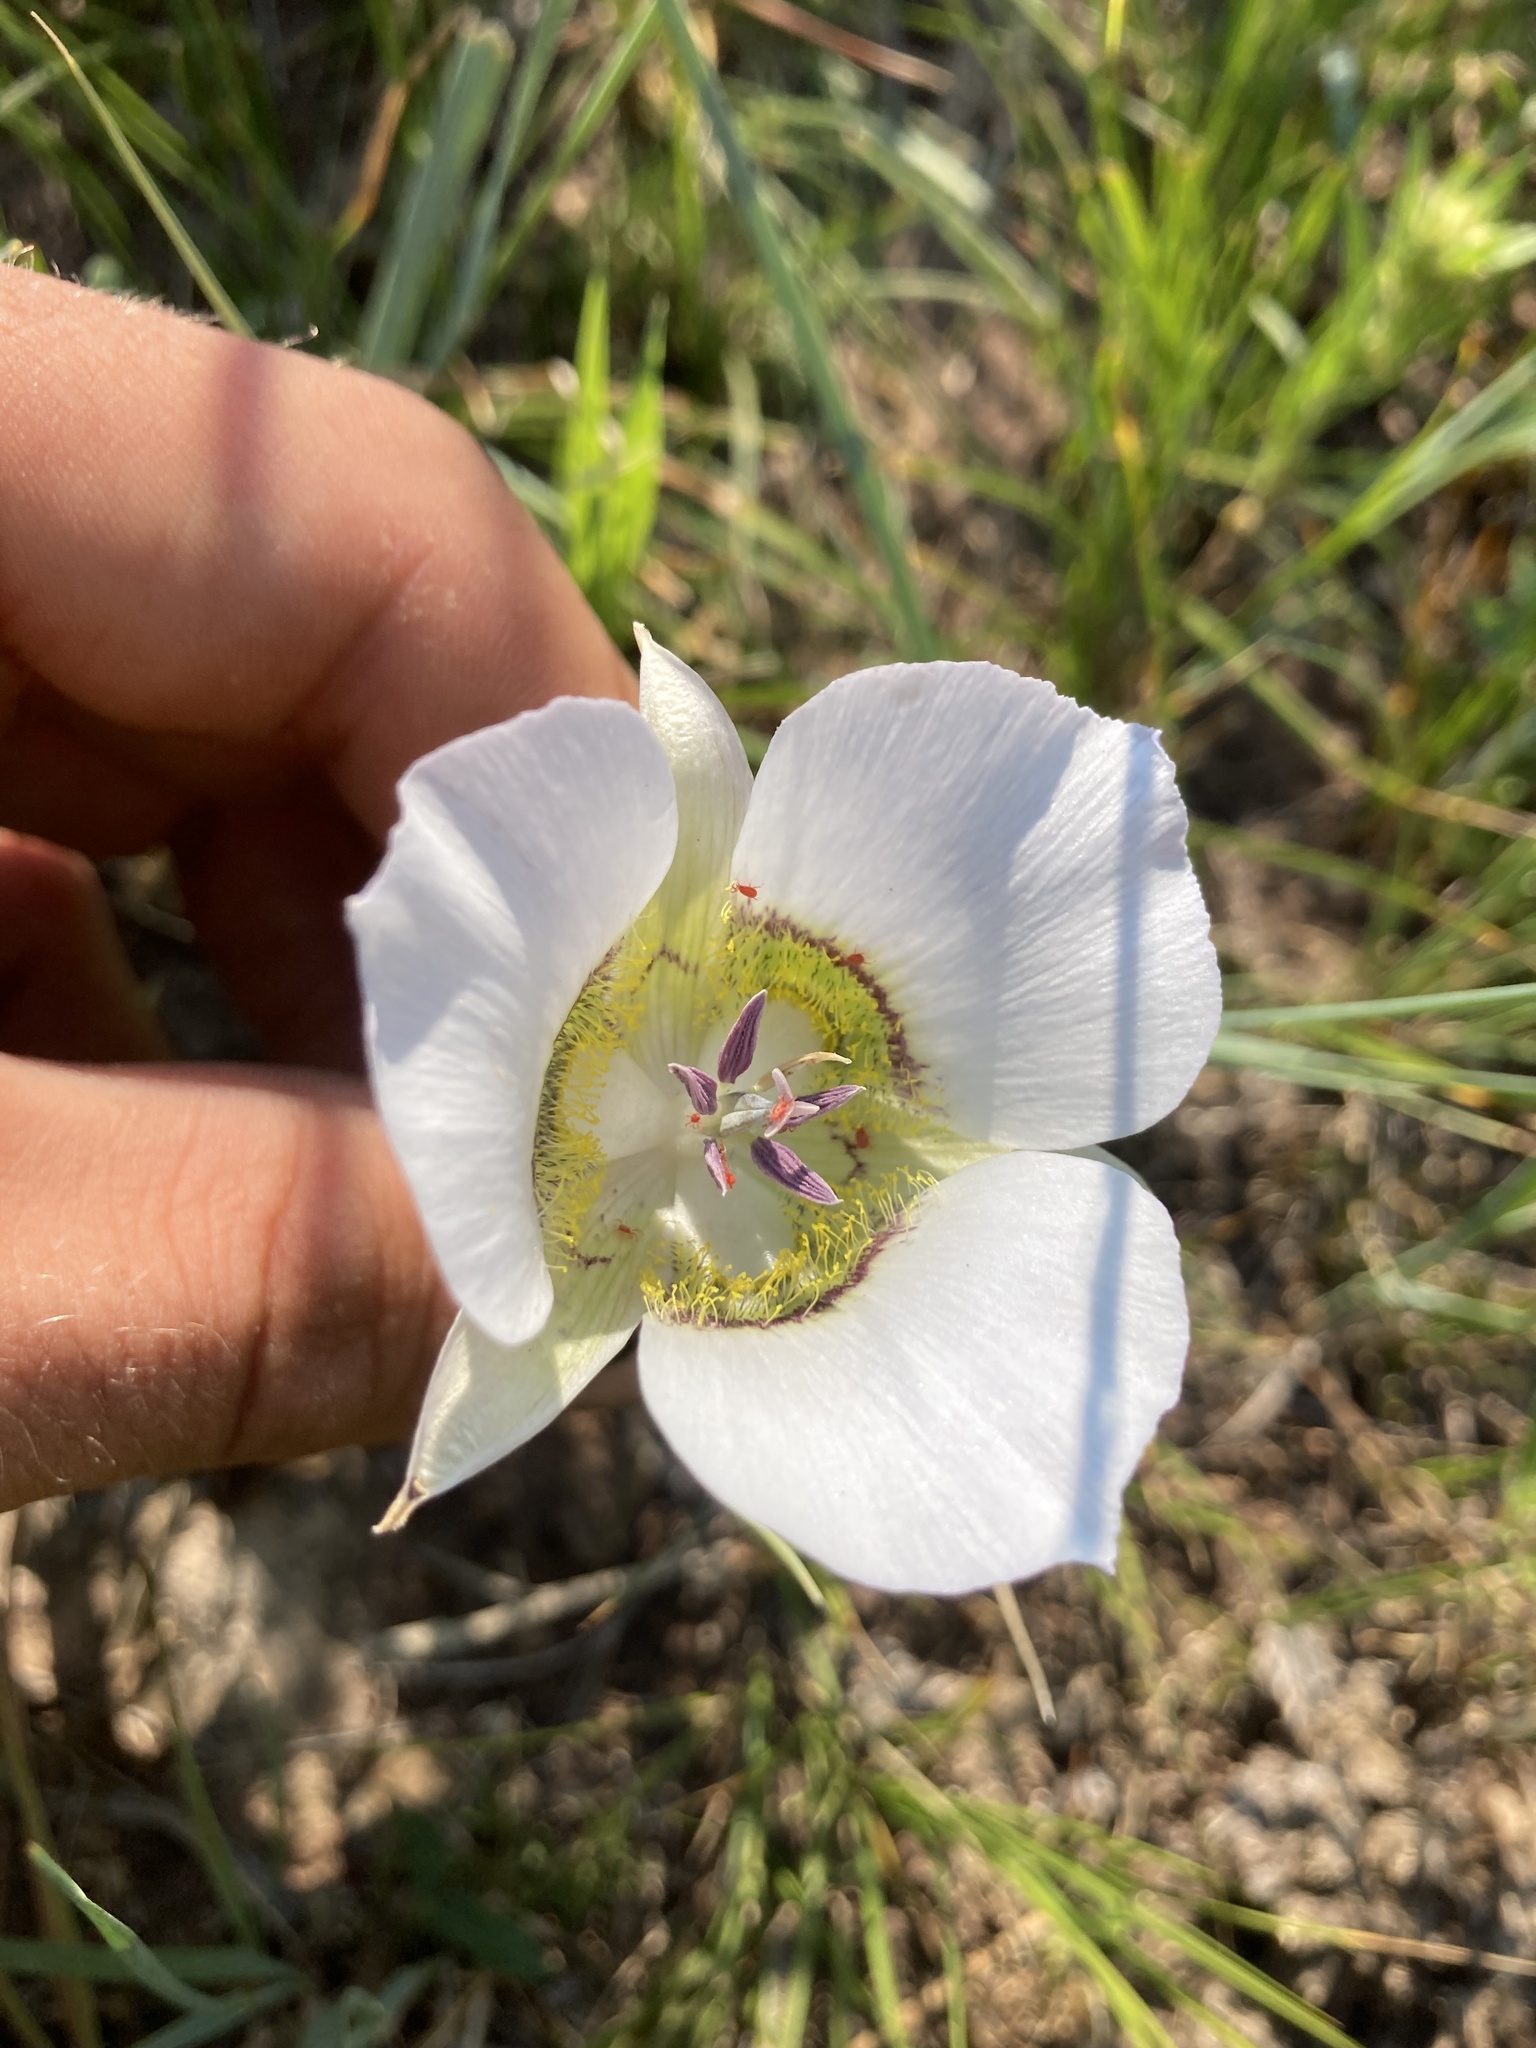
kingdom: Plantae
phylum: Tracheophyta
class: Liliopsida
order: Liliales
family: Liliaceae
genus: Calochortus
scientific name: Calochortus gunnisonii
